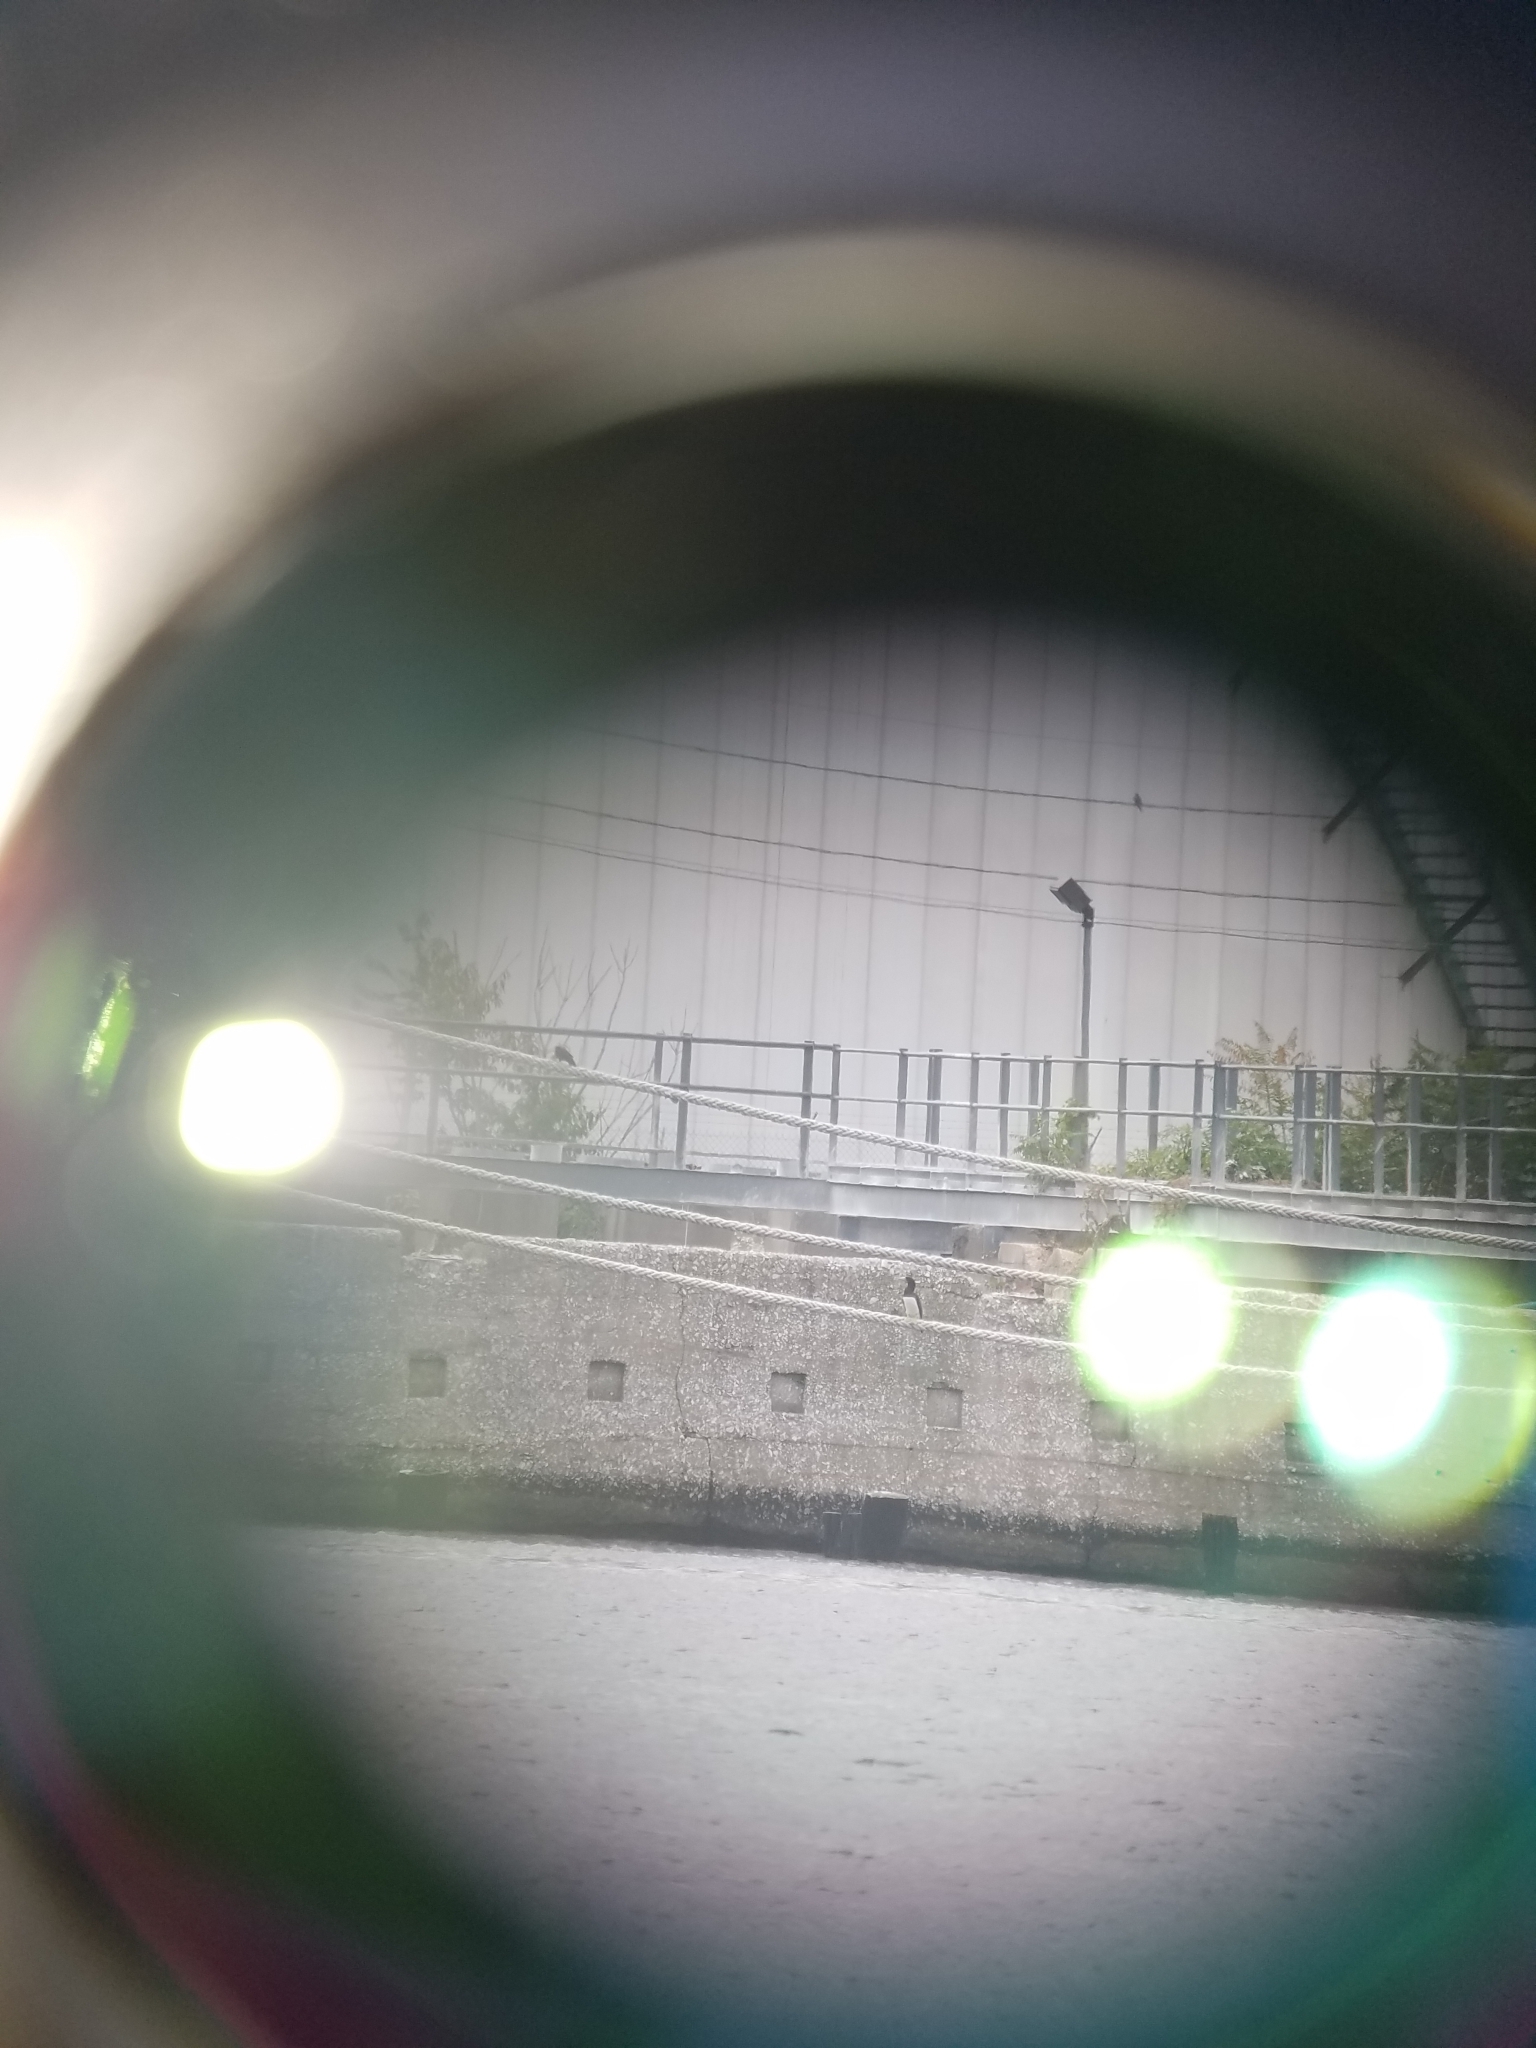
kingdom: Animalia
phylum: Chordata
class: Aves
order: Suliformes
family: Sulidae
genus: Sula
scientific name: Sula leucogaster
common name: Brown booby
